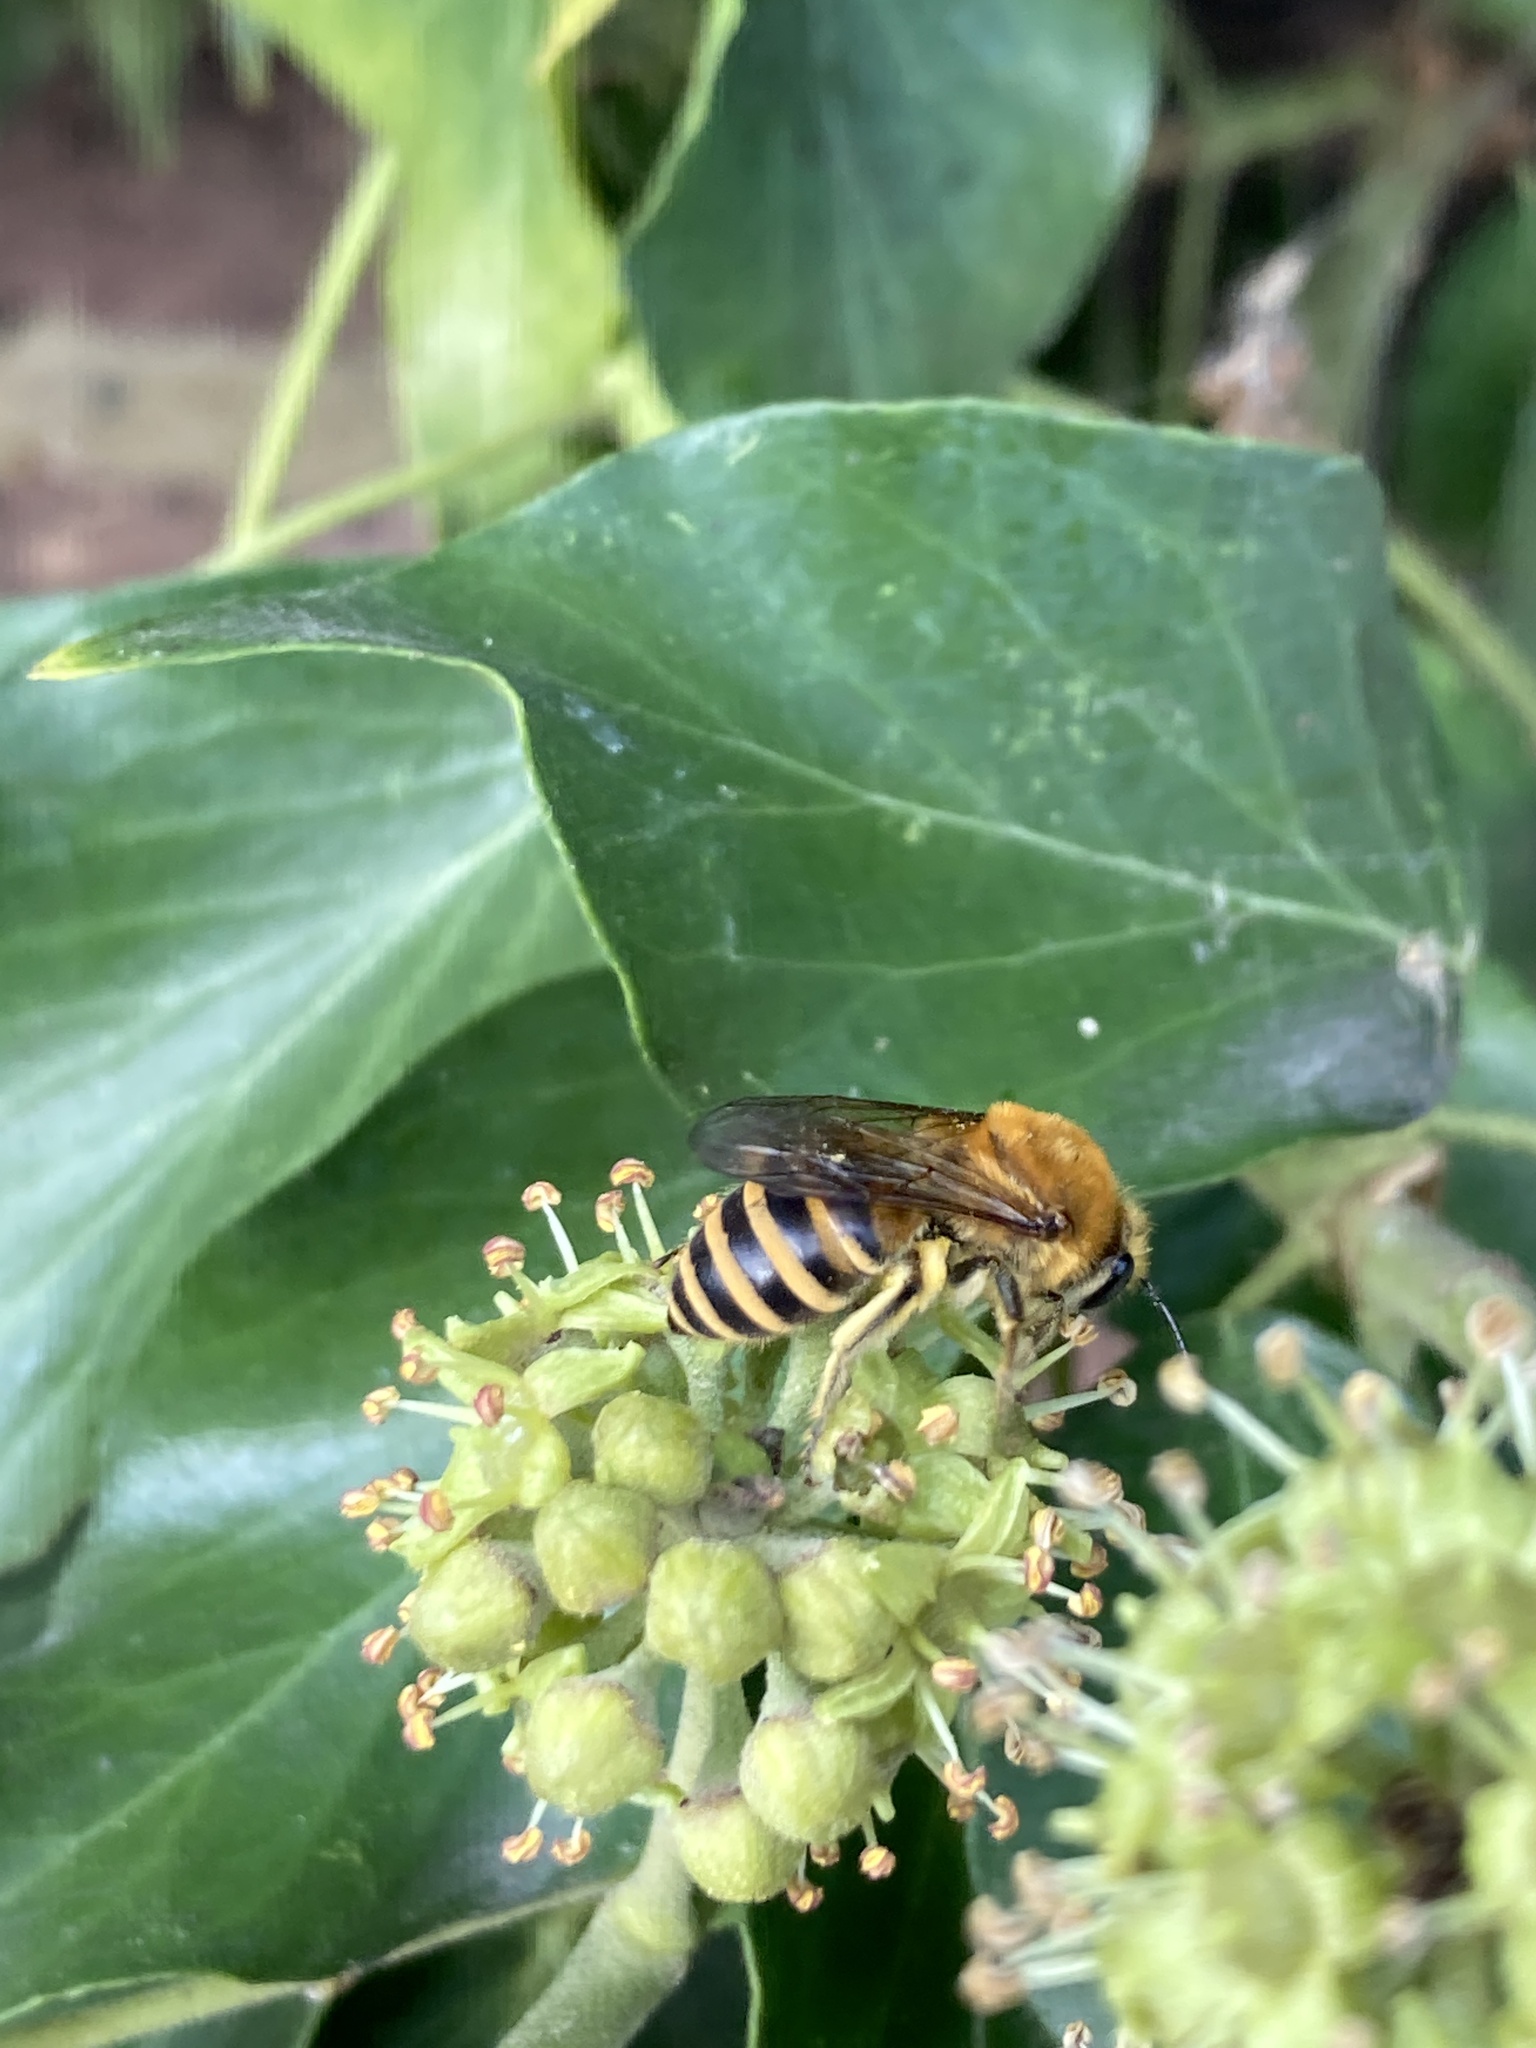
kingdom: Animalia
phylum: Arthropoda
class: Insecta
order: Hymenoptera
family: Colletidae
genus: Colletes
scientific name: Colletes hederae
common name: Ivy bee
